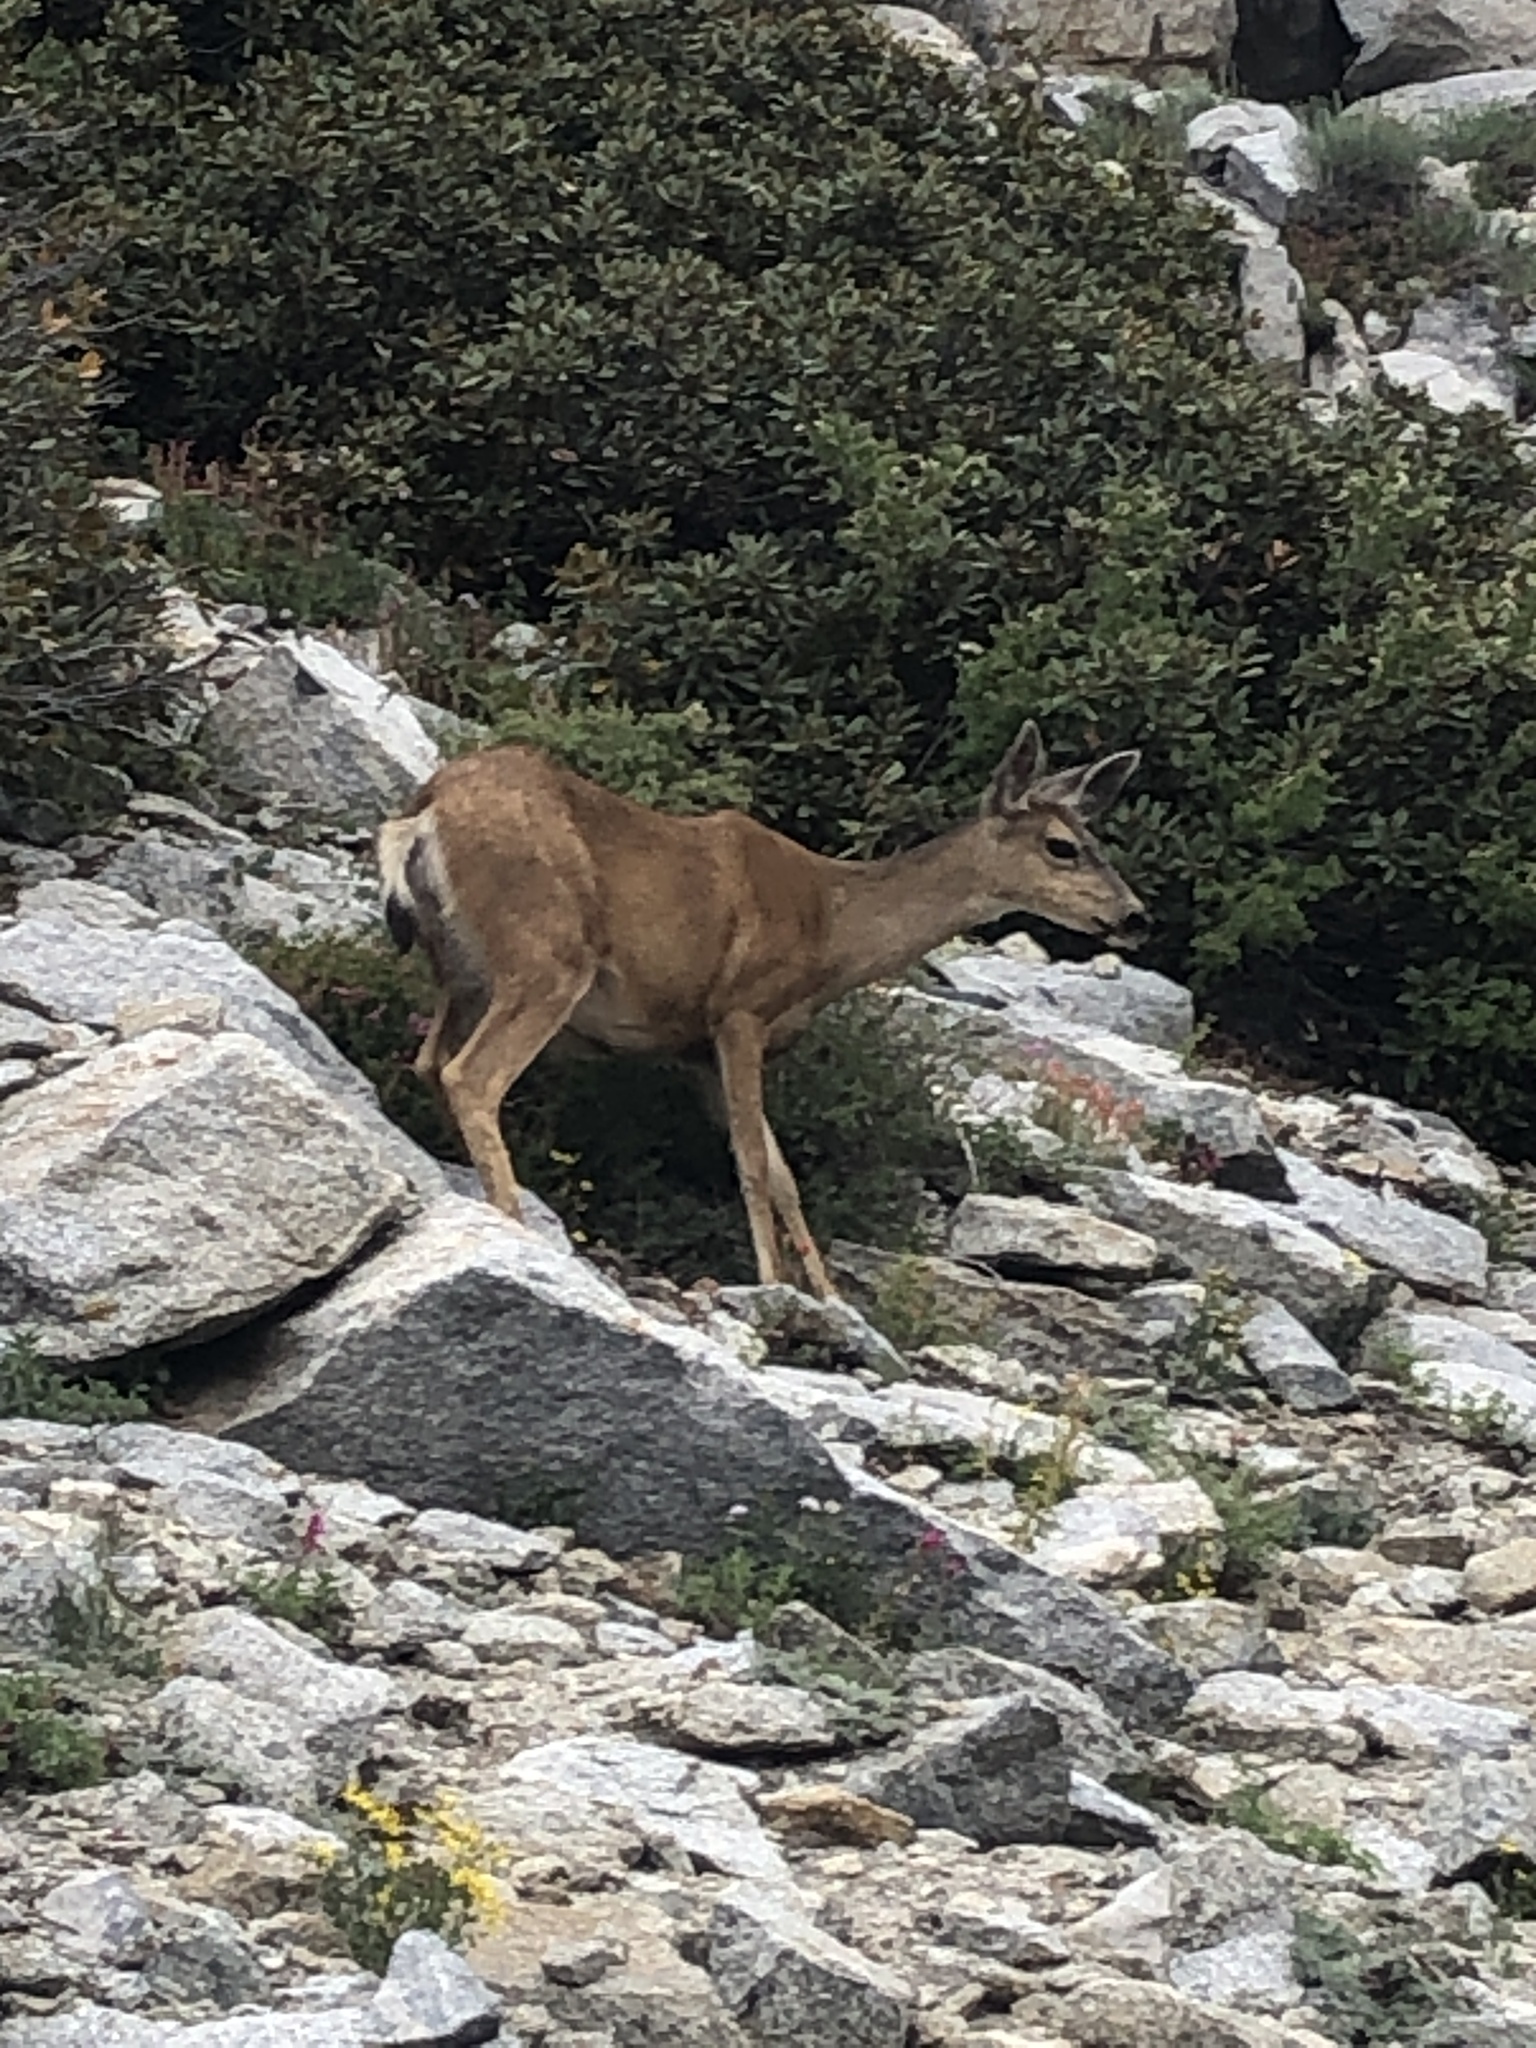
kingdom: Animalia
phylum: Chordata
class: Mammalia
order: Artiodactyla
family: Cervidae
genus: Odocoileus
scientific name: Odocoileus hemionus
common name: Mule deer
